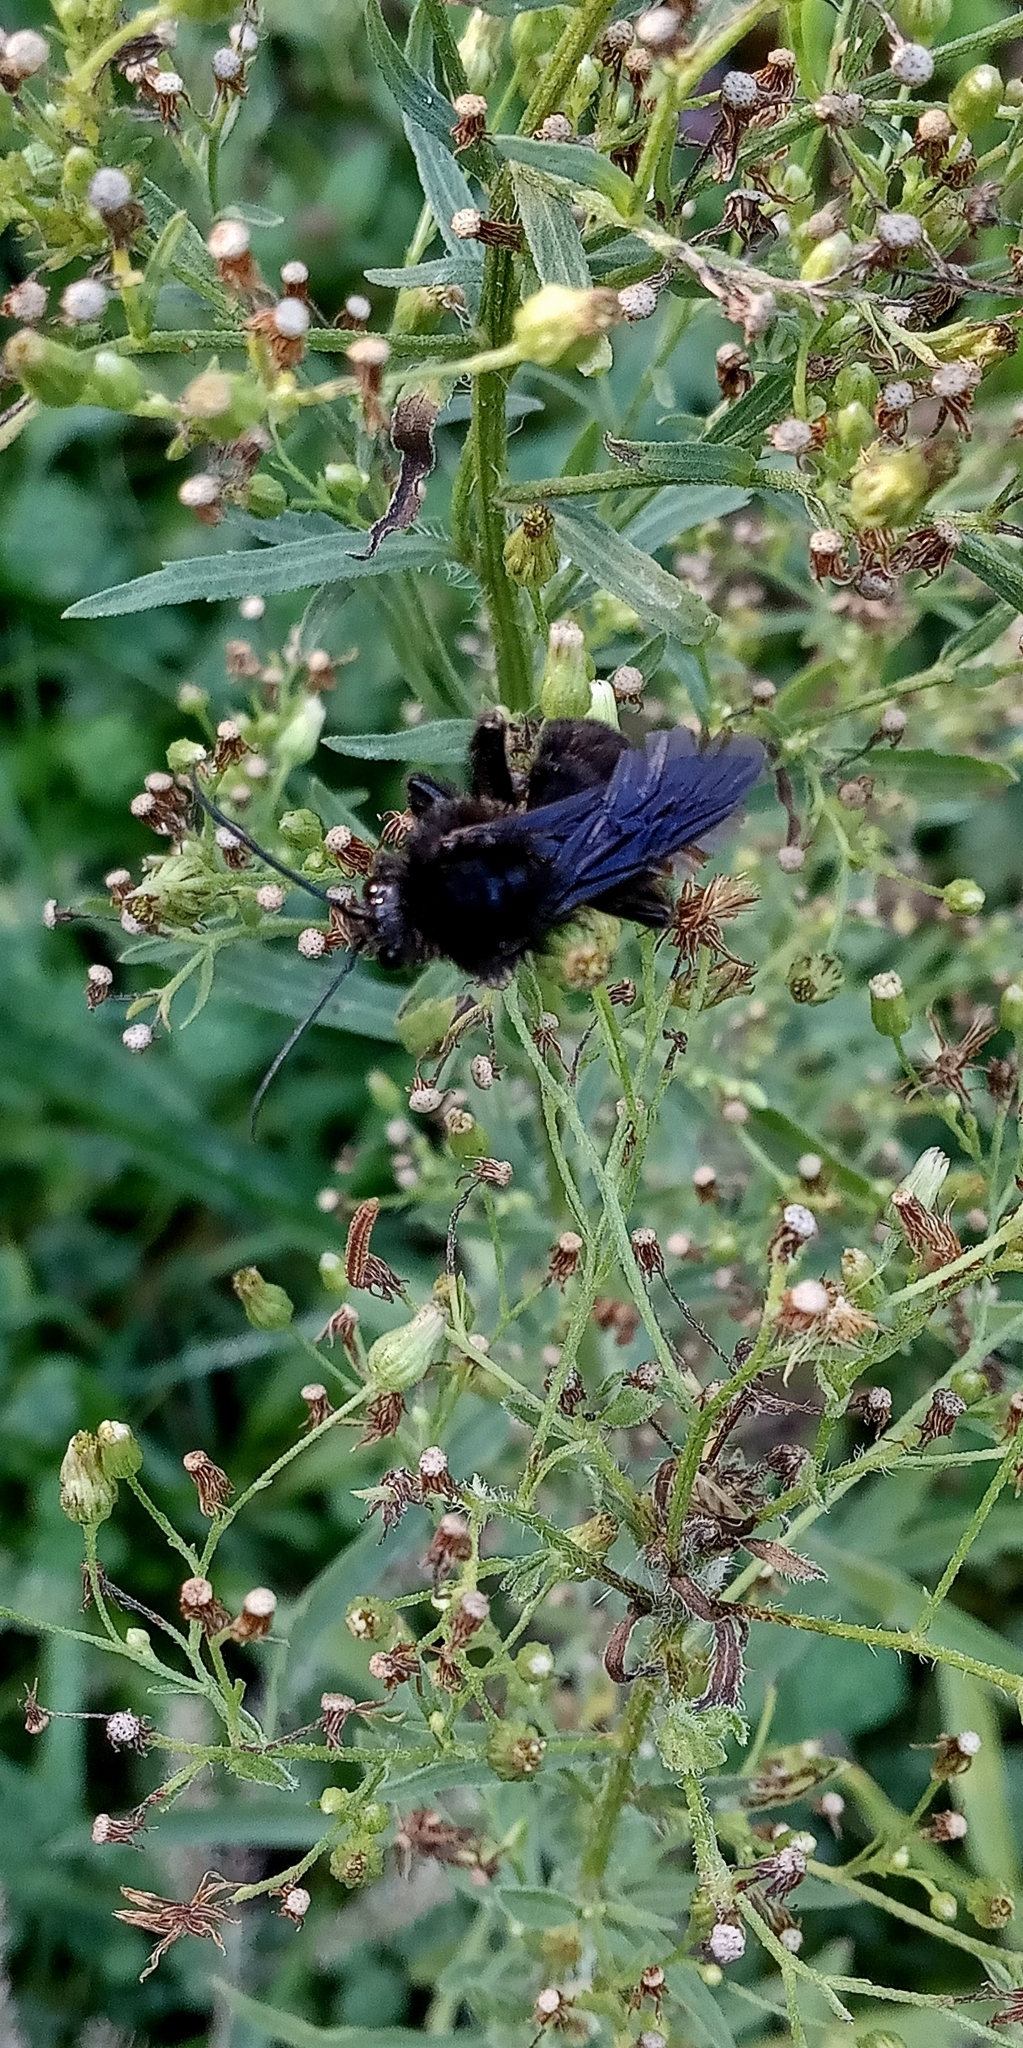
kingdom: Animalia
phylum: Arthropoda
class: Insecta
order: Hymenoptera
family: Apidae
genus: Bombus
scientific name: Bombus pauloensis
